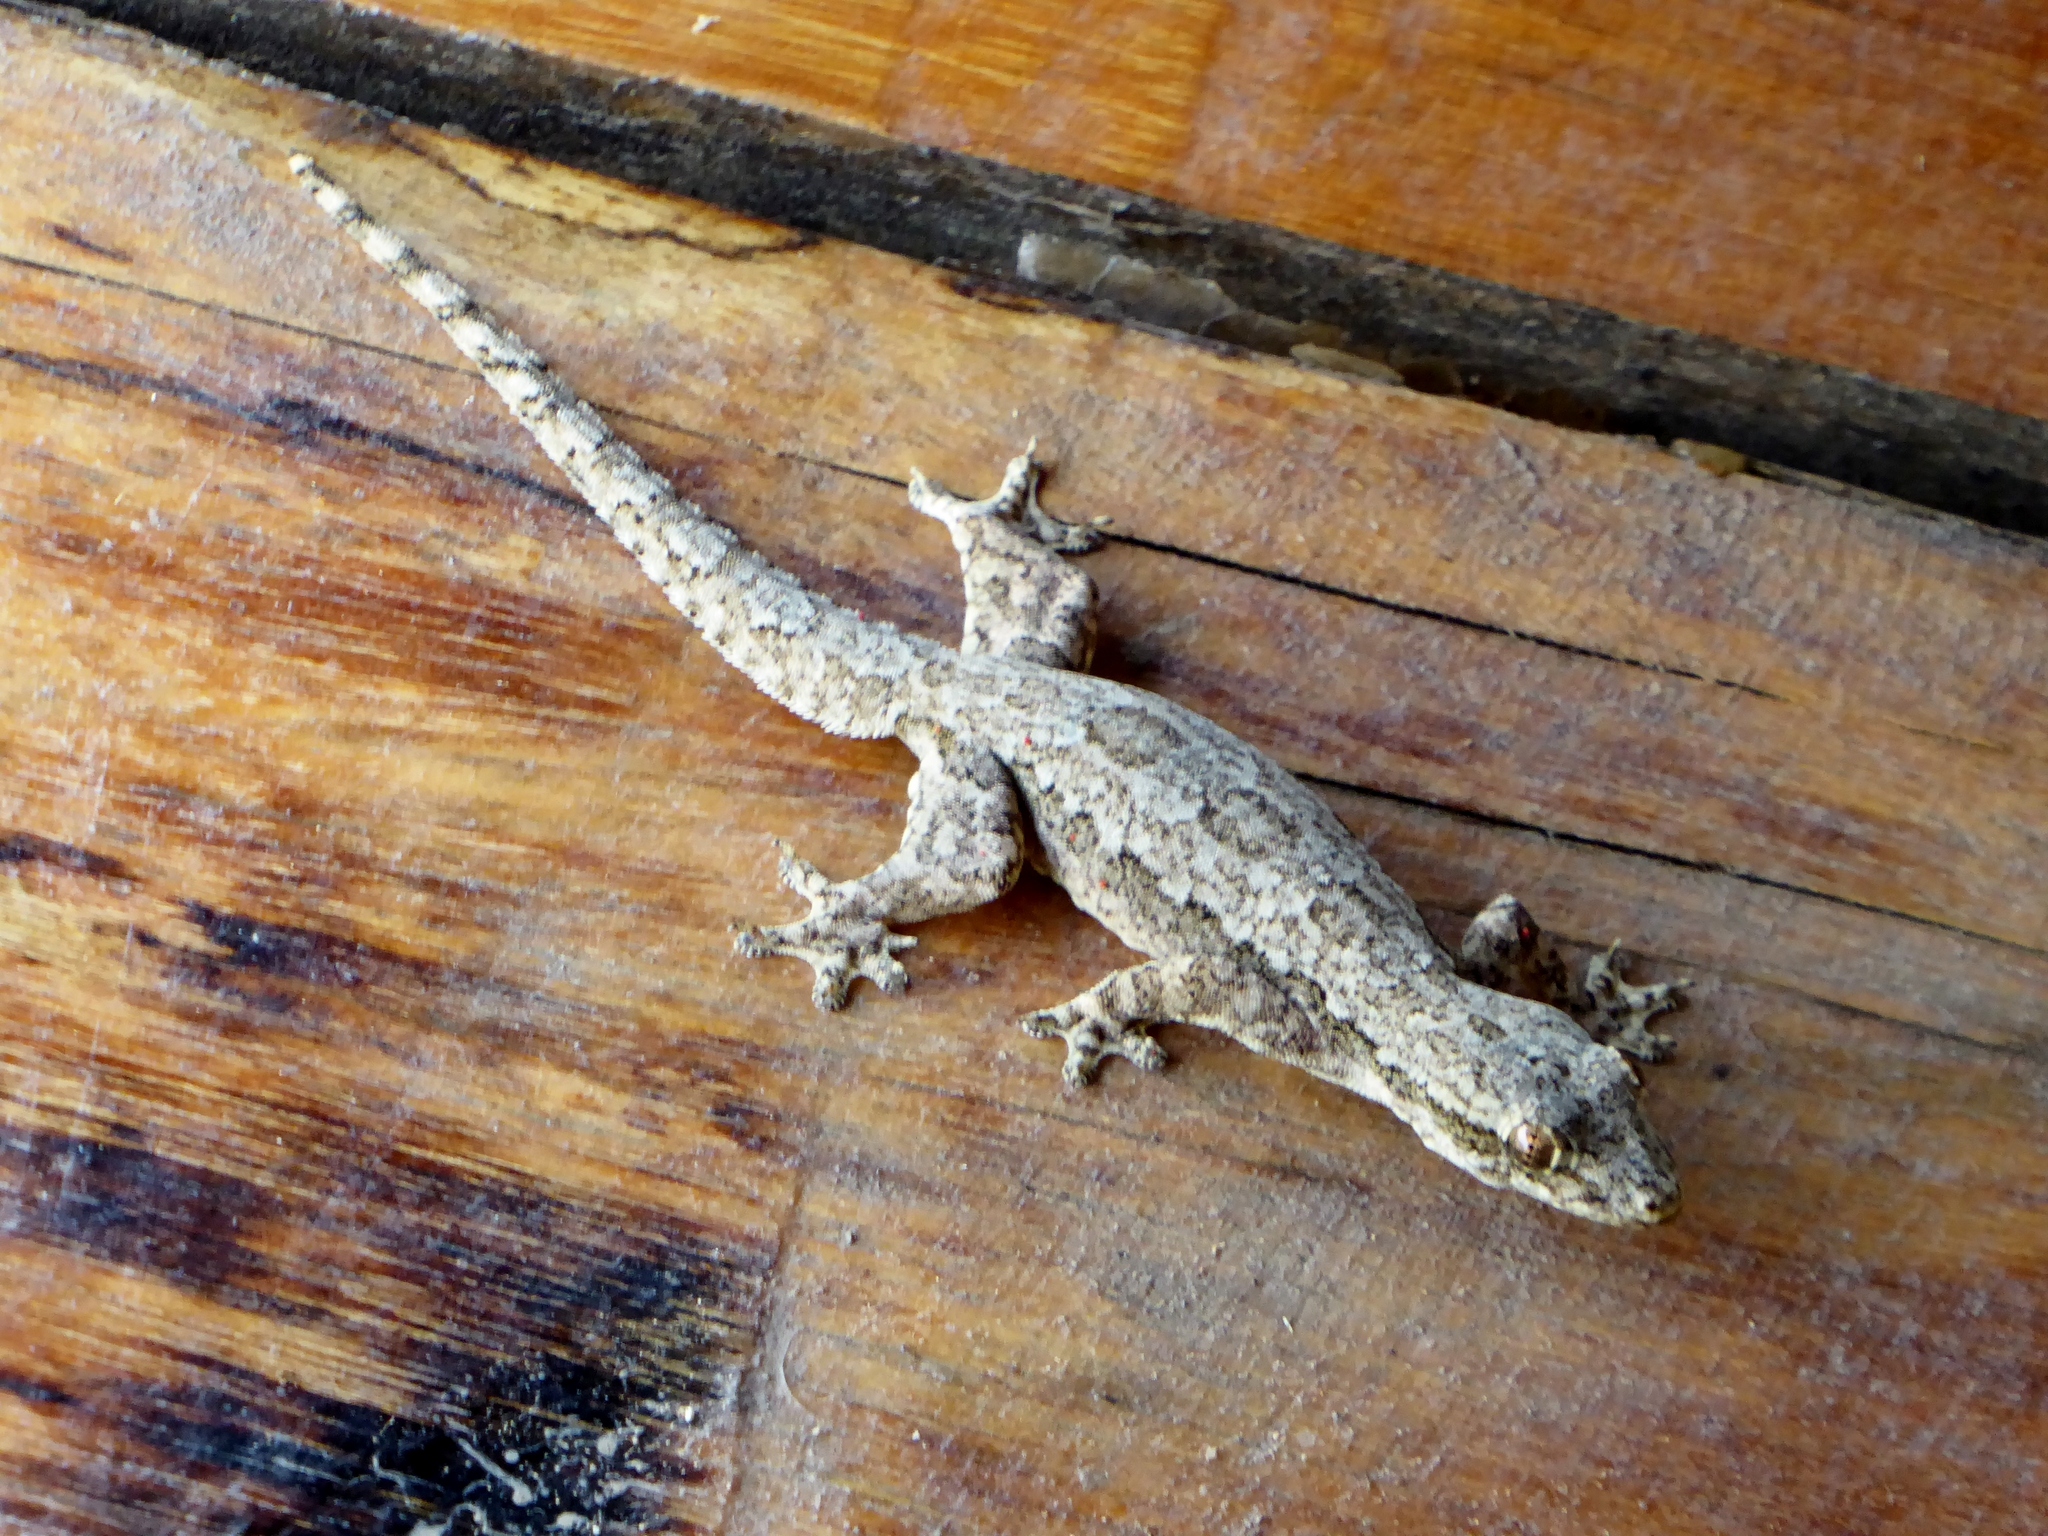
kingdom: Animalia
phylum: Chordata
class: Squamata
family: Gekkonidae
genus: Hemidactylus
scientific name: Hemidactylus platyurus
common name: Flat-tailed house gecko
